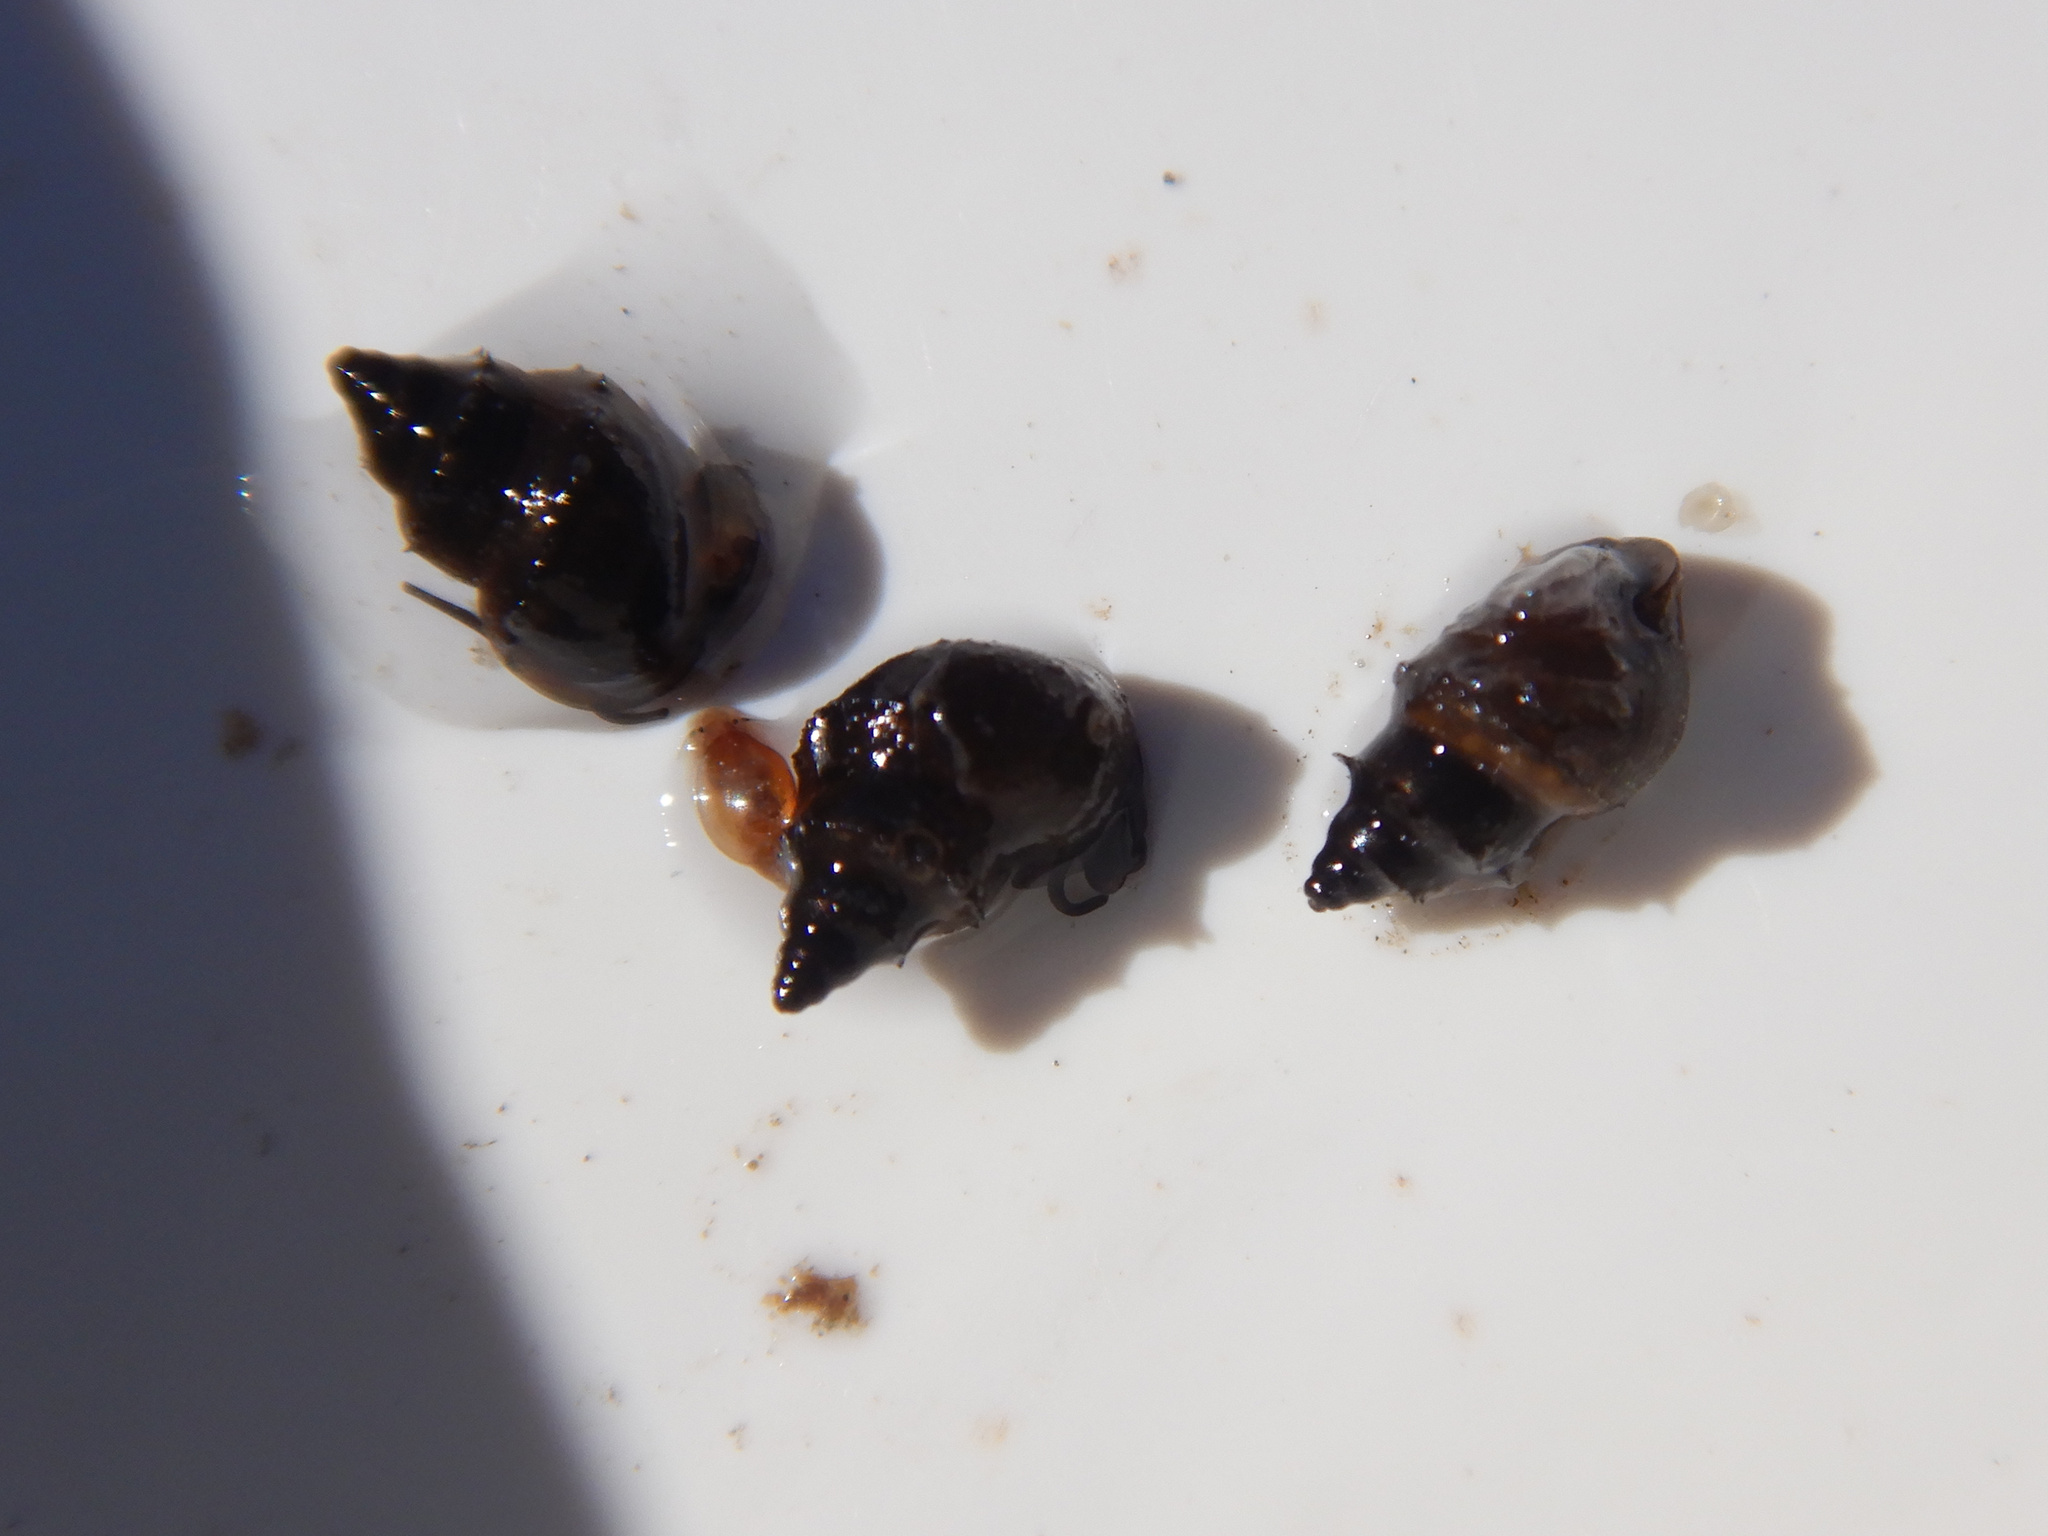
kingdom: Animalia
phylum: Mollusca
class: Gastropoda
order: Littorinimorpha
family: Tateidae
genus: Potamopyrgus
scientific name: Potamopyrgus antipodarum
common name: Jenkins' spire snail
